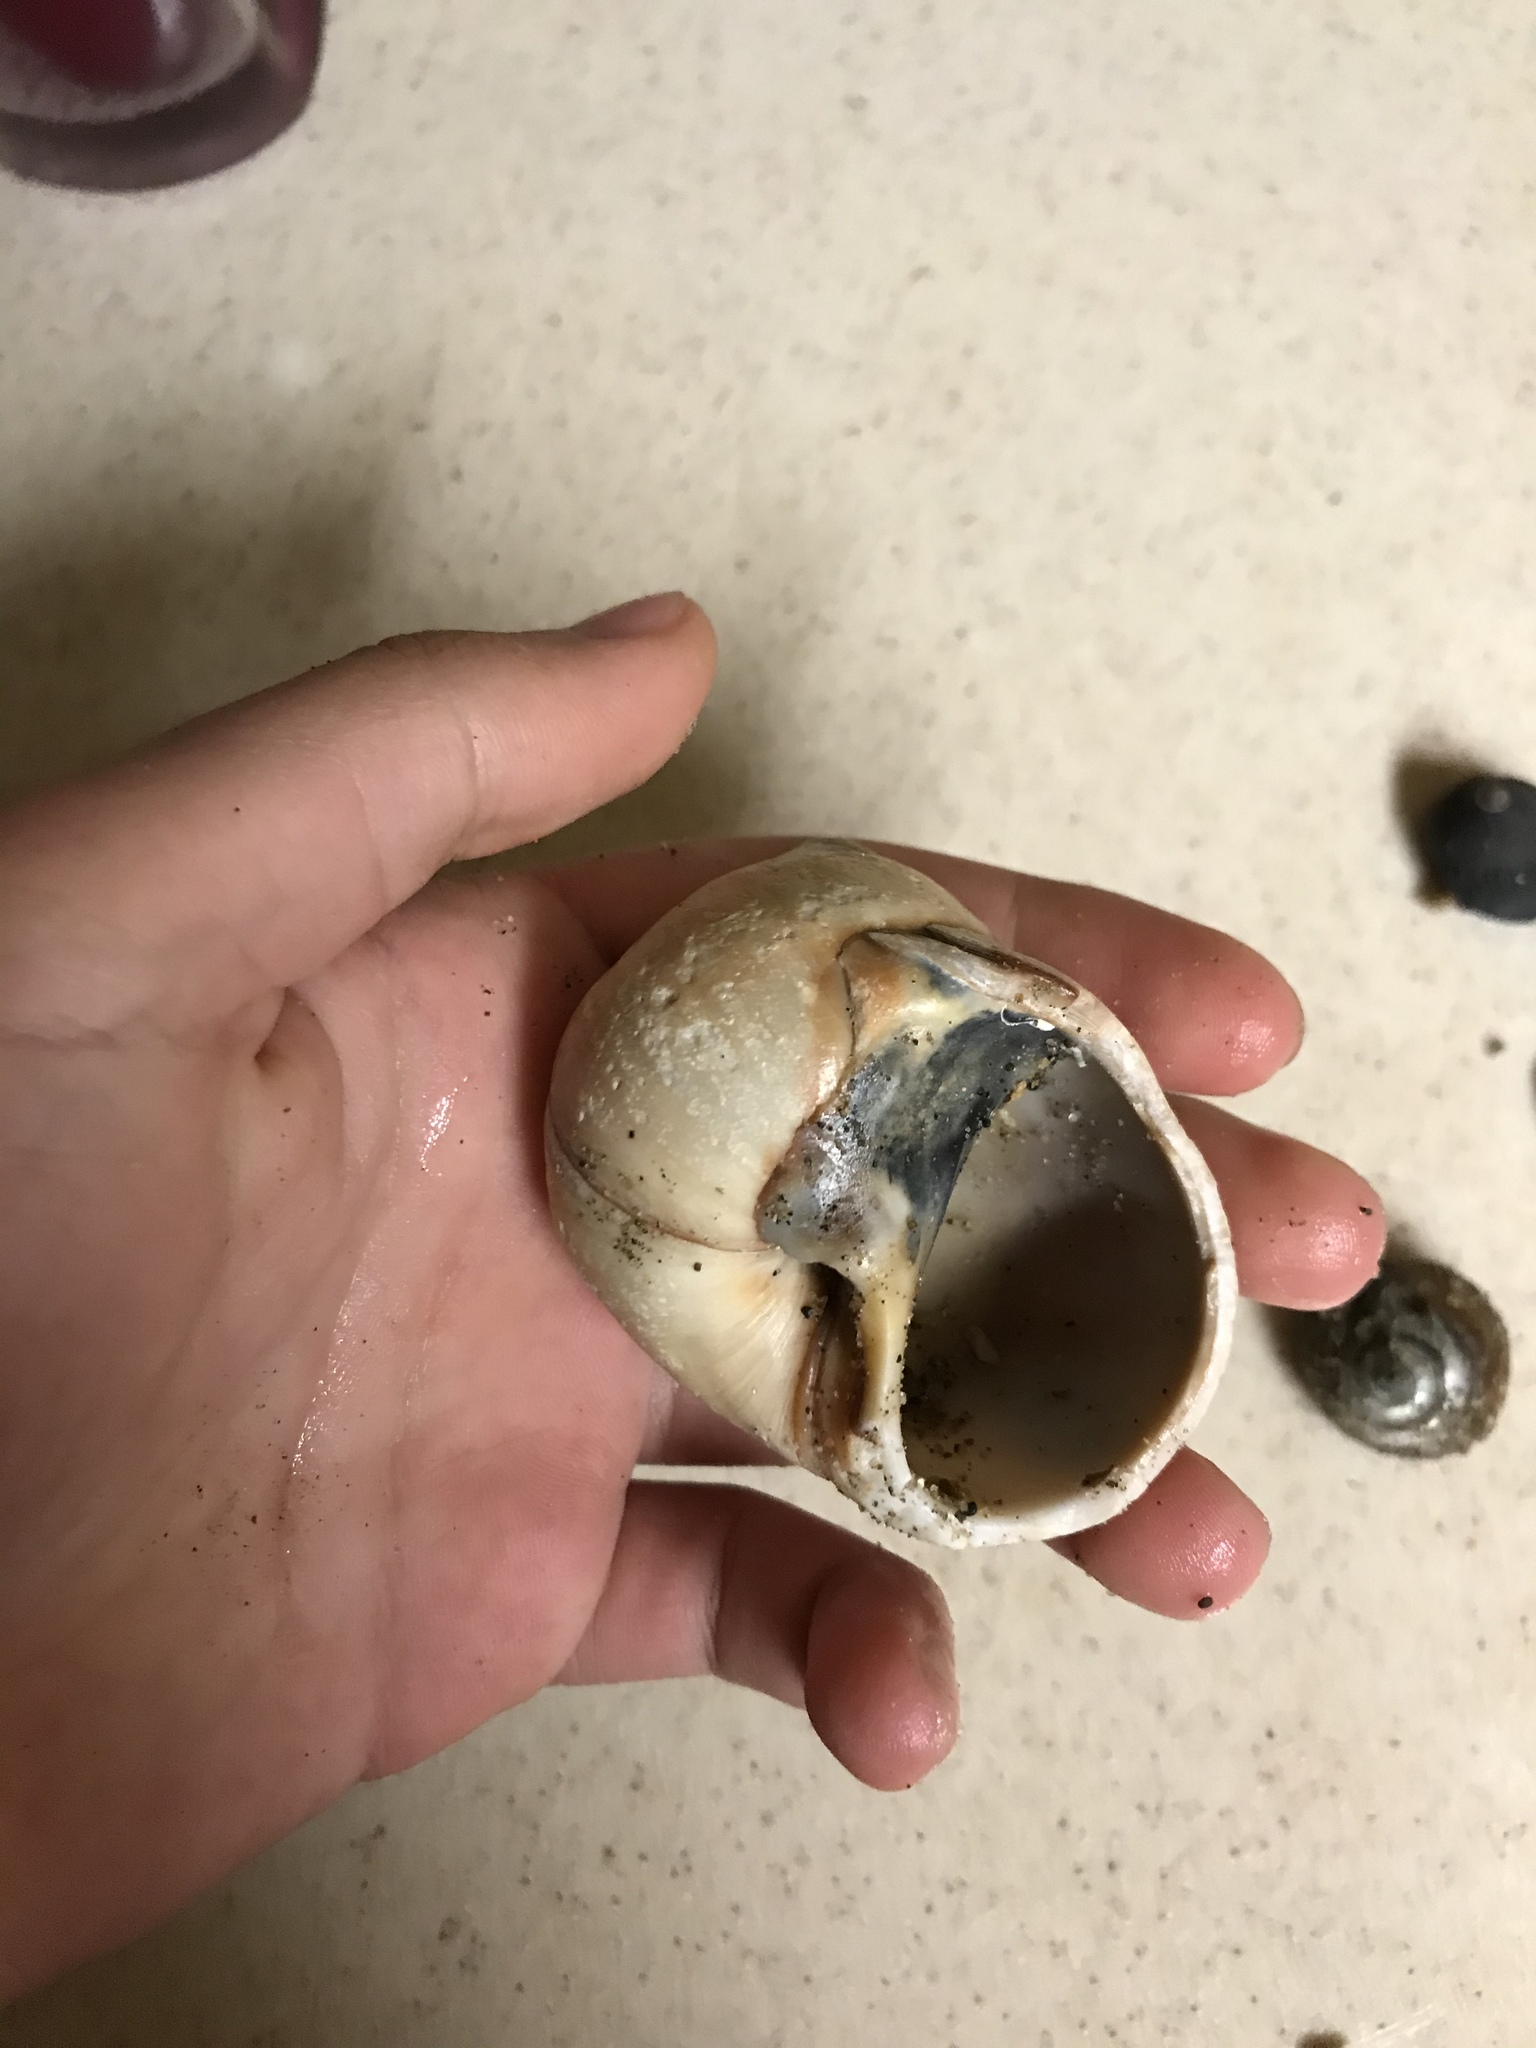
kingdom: Animalia
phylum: Mollusca
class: Gastropoda
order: Littorinimorpha
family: Naticidae
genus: Neverita
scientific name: Neverita lewisii
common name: Lewis' moonsnail
